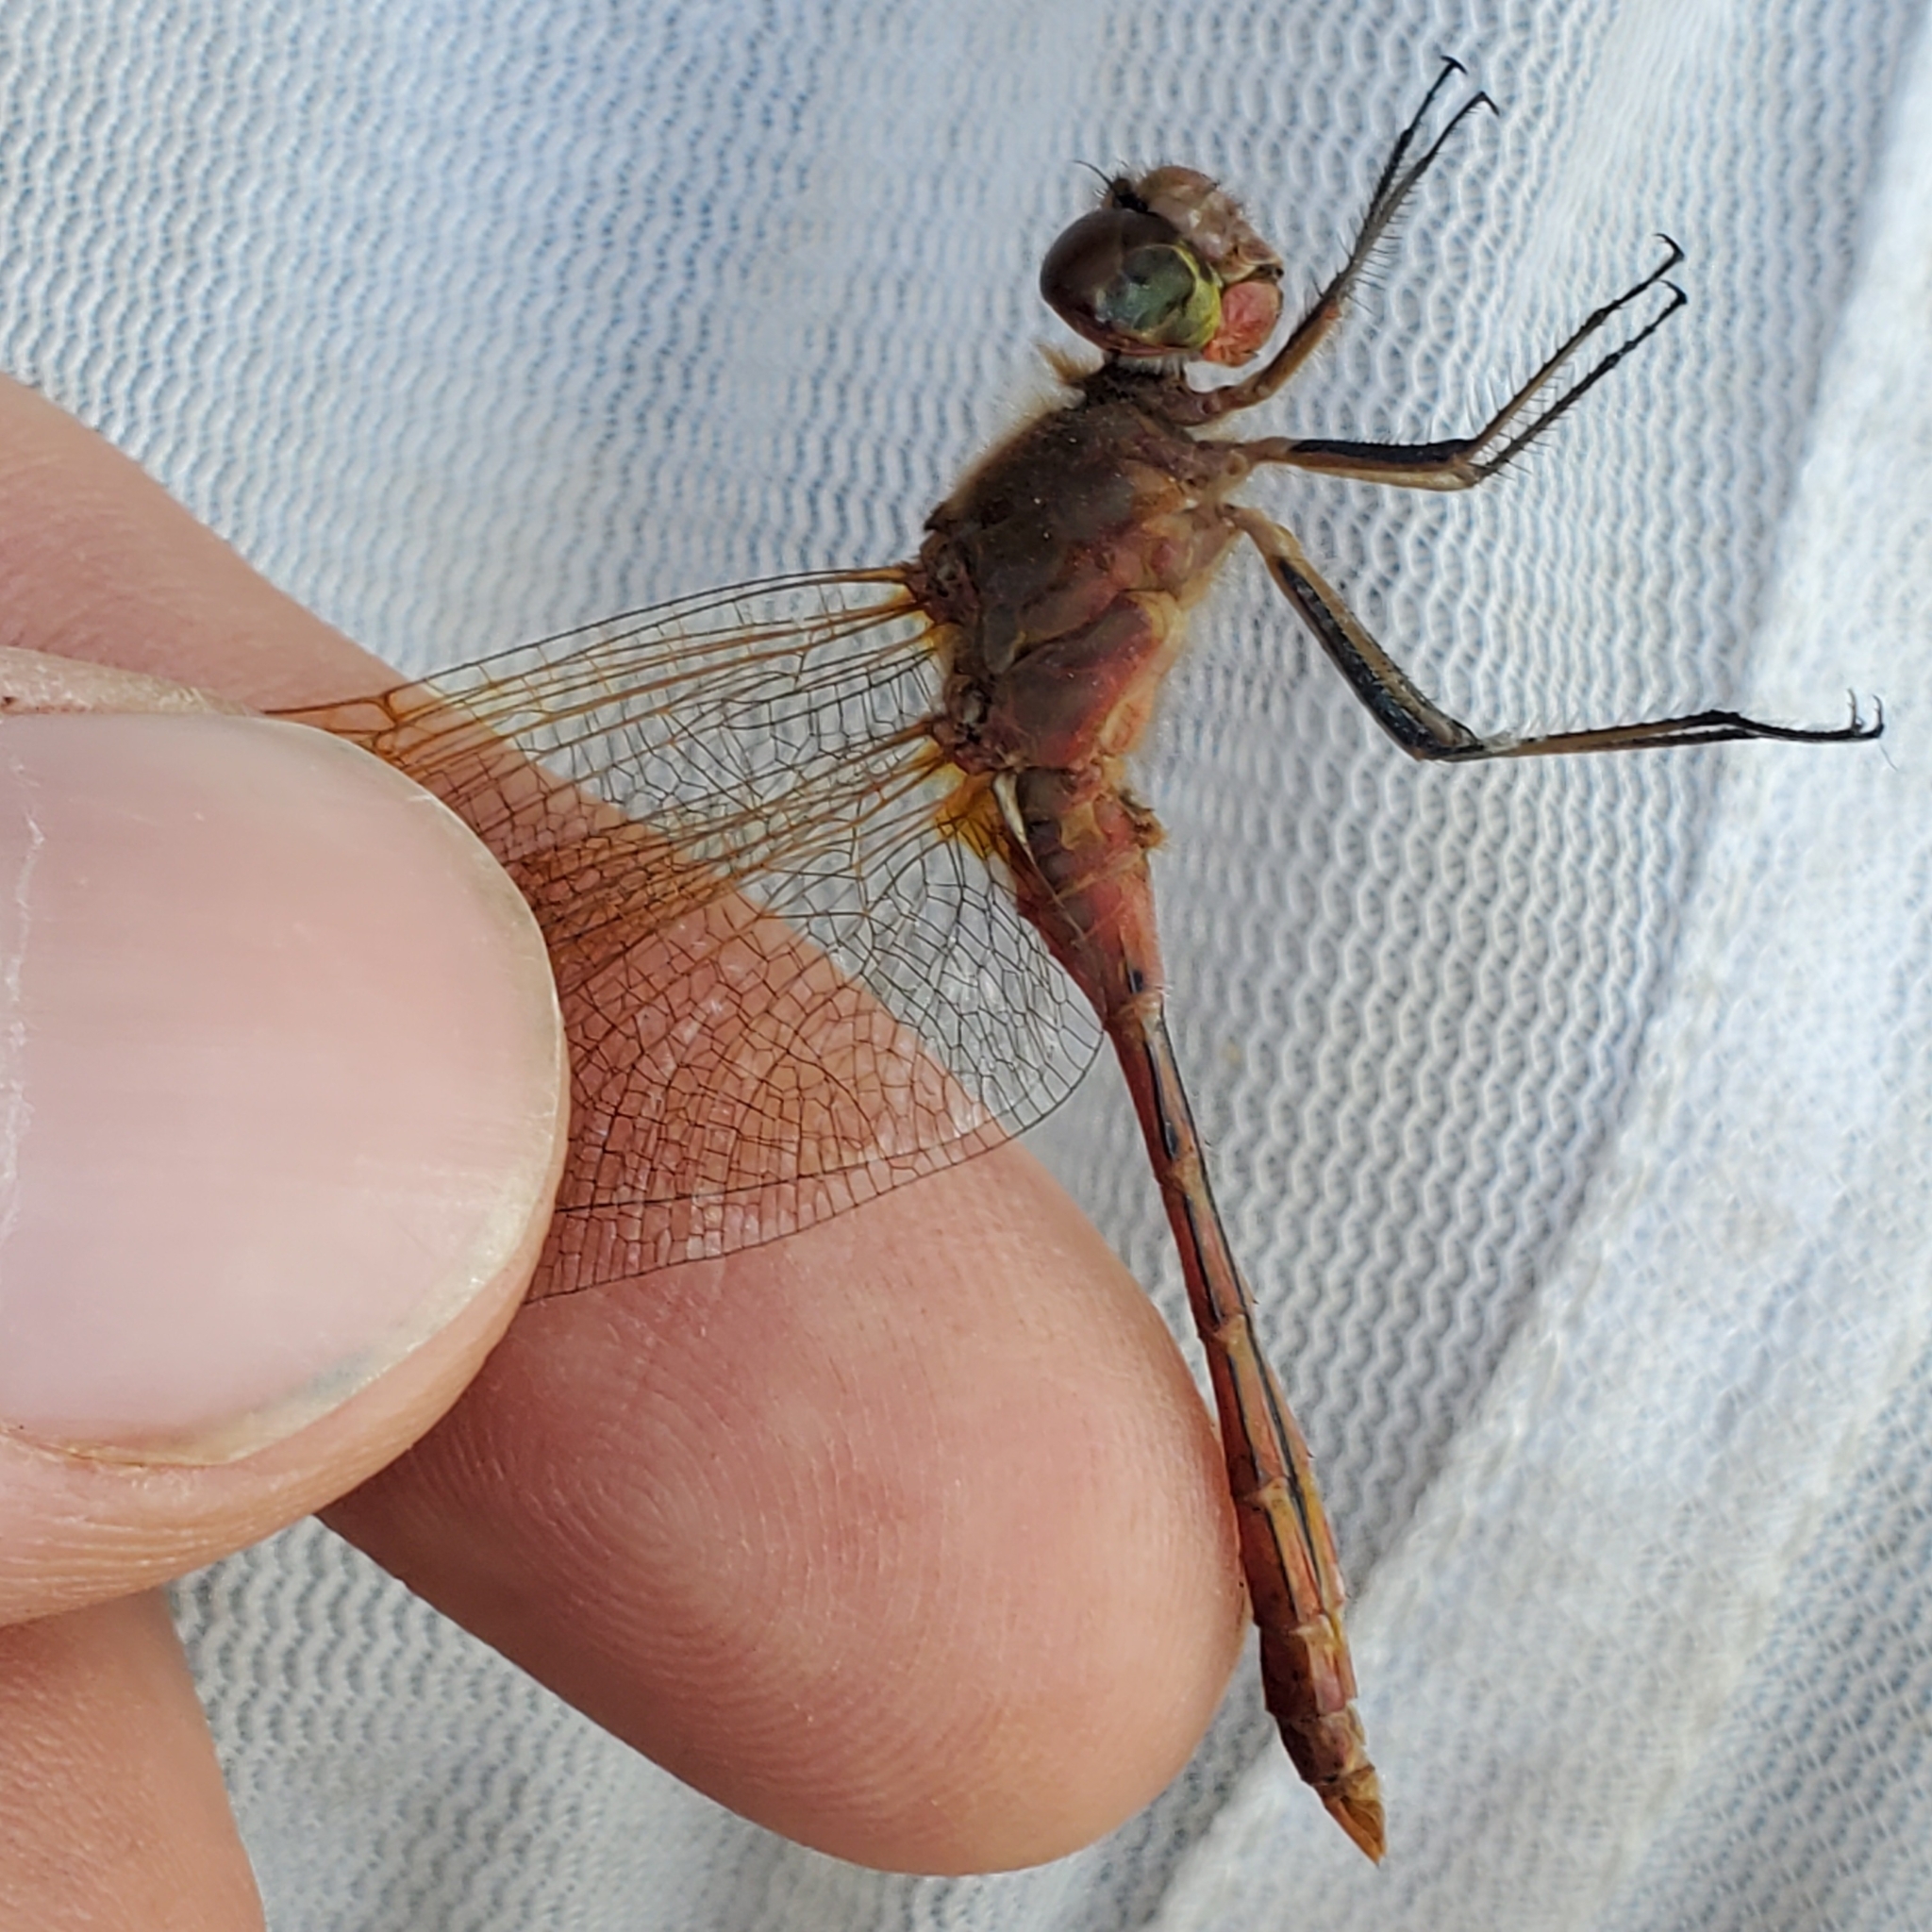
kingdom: Animalia
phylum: Arthropoda
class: Insecta
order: Odonata
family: Libellulidae
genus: Sympetrum
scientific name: Sympetrum costiferum
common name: Saffron-winged meadowhawk
